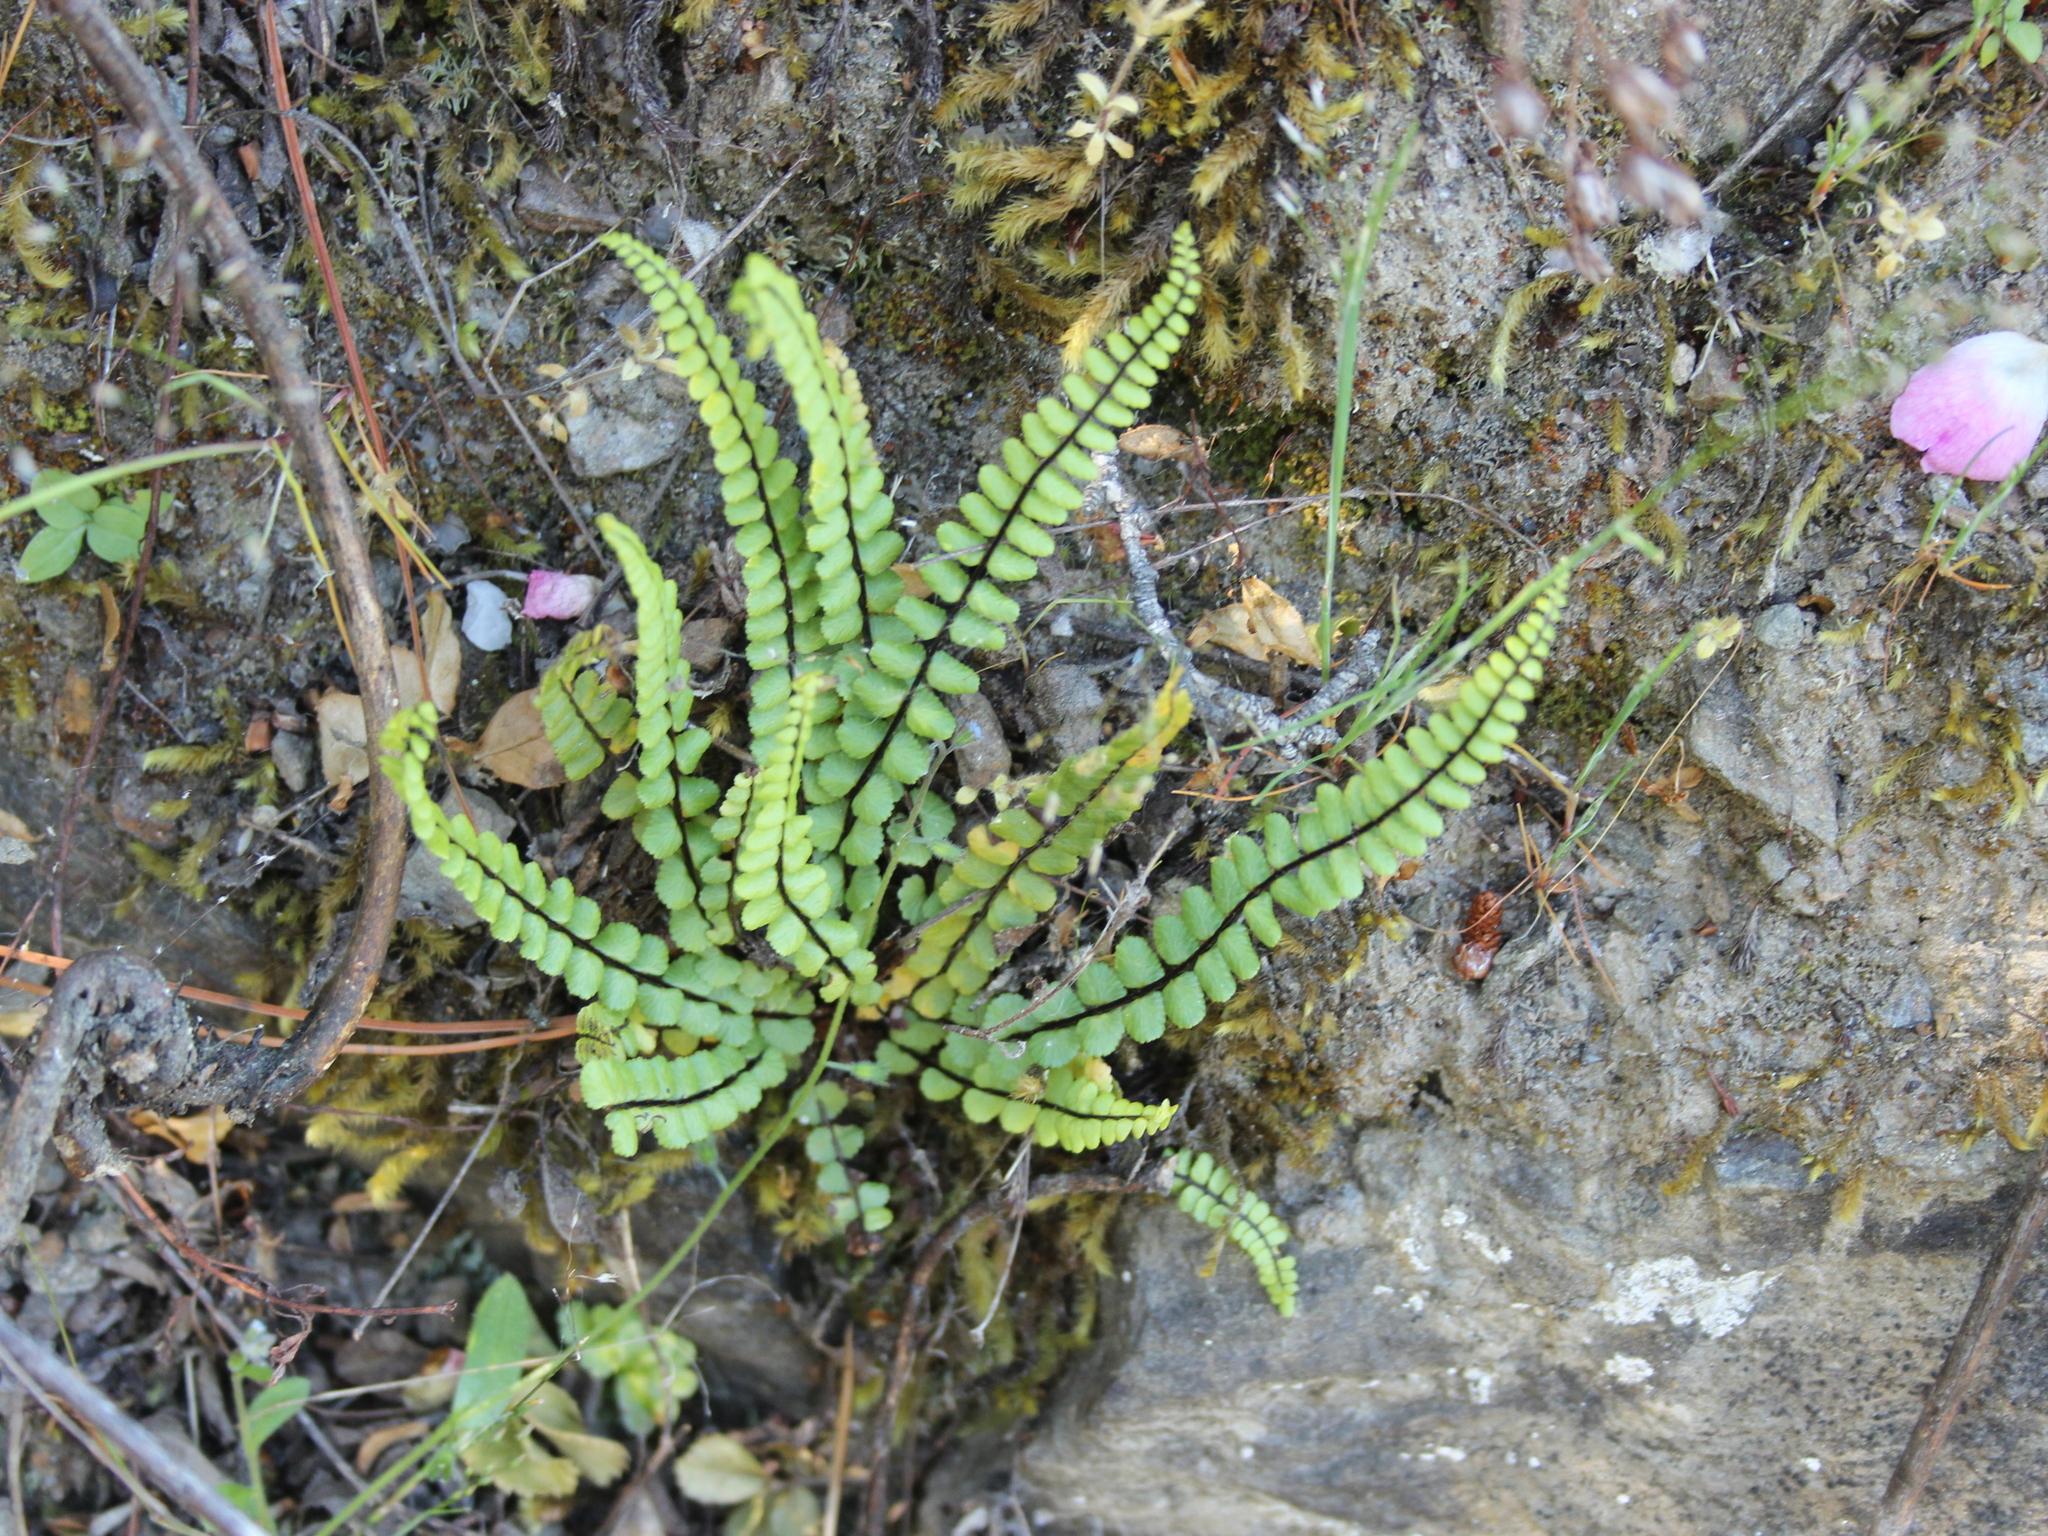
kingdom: Plantae
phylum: Tracheophyta
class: Polypodiopsida
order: Polypodiales
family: Aspleniaceae
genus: Asplenium
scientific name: Asplenium trichomanes
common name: Maidenhair spleenwort
